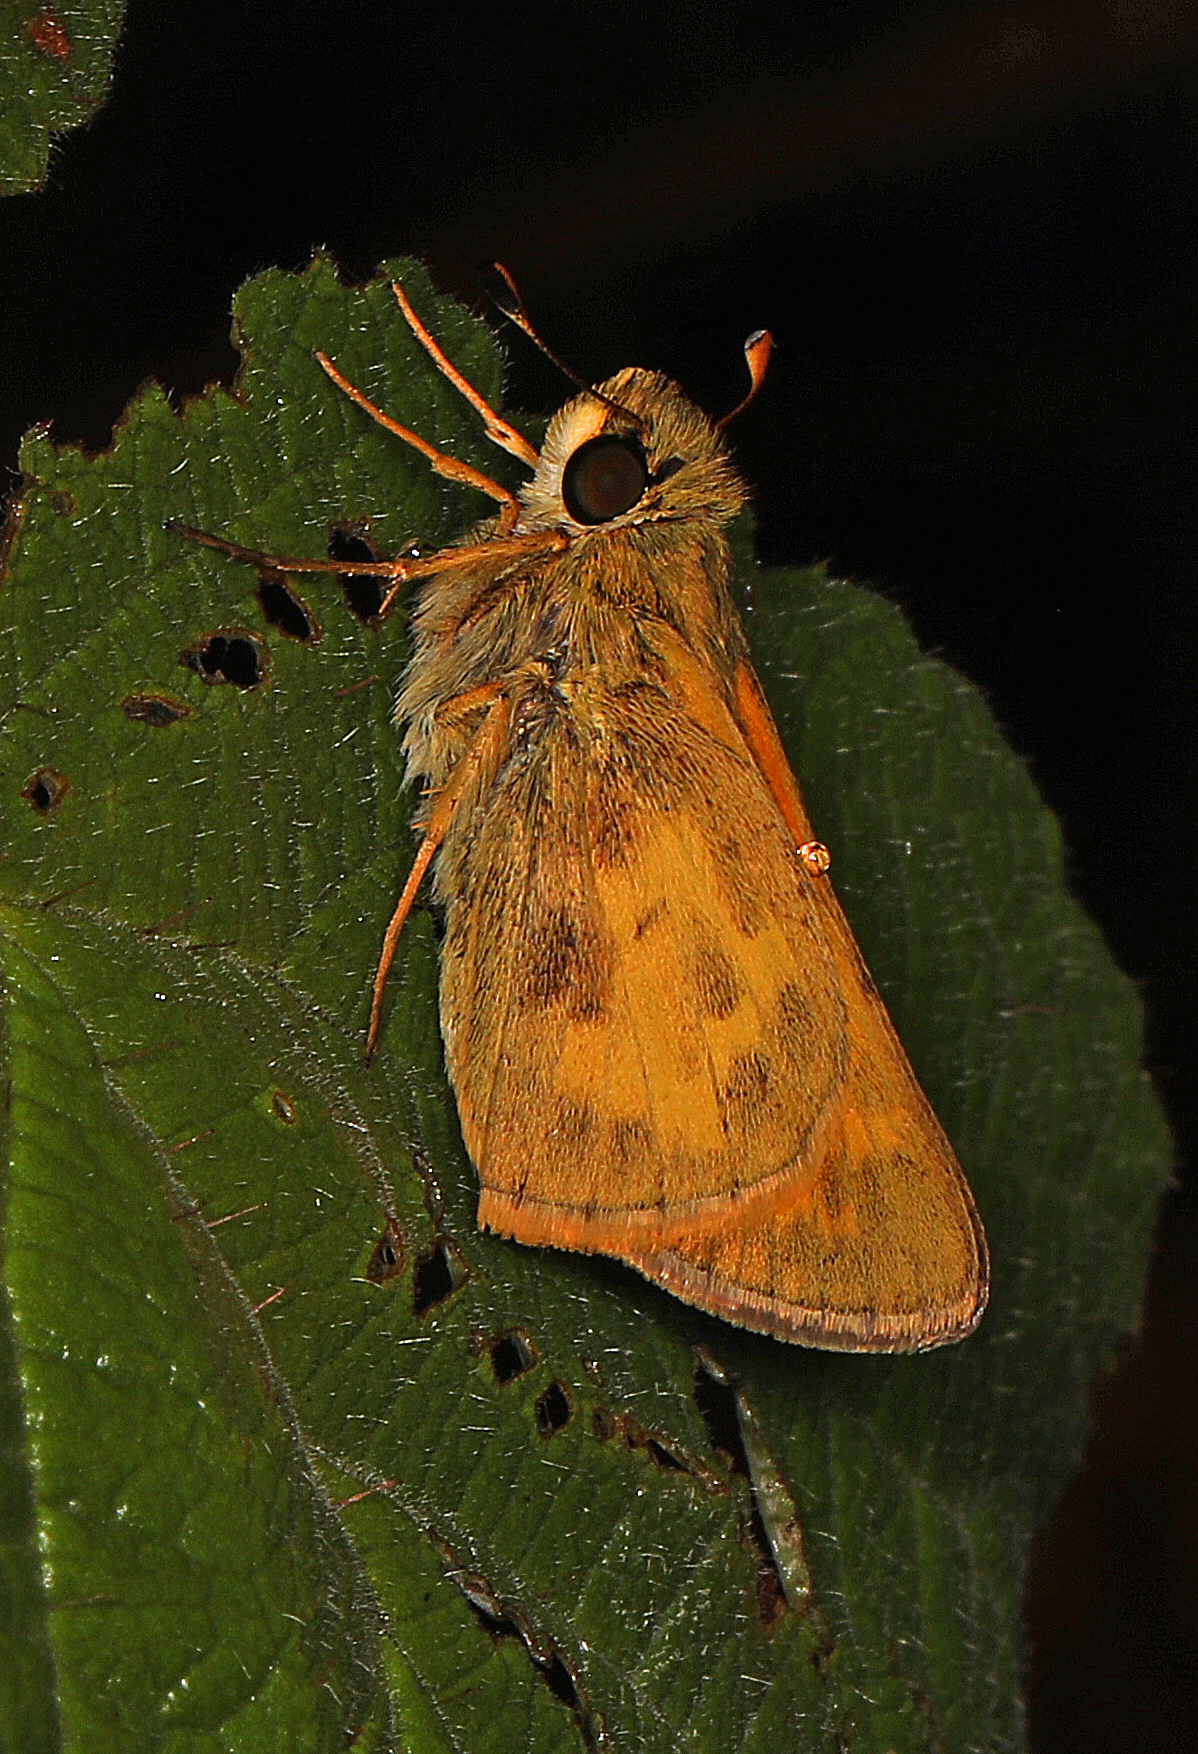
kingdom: Animalia
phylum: Arthropoda
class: Insecta
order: Lepidoptera
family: Hesperiidae
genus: Atalopedes
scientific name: Atalopedes
